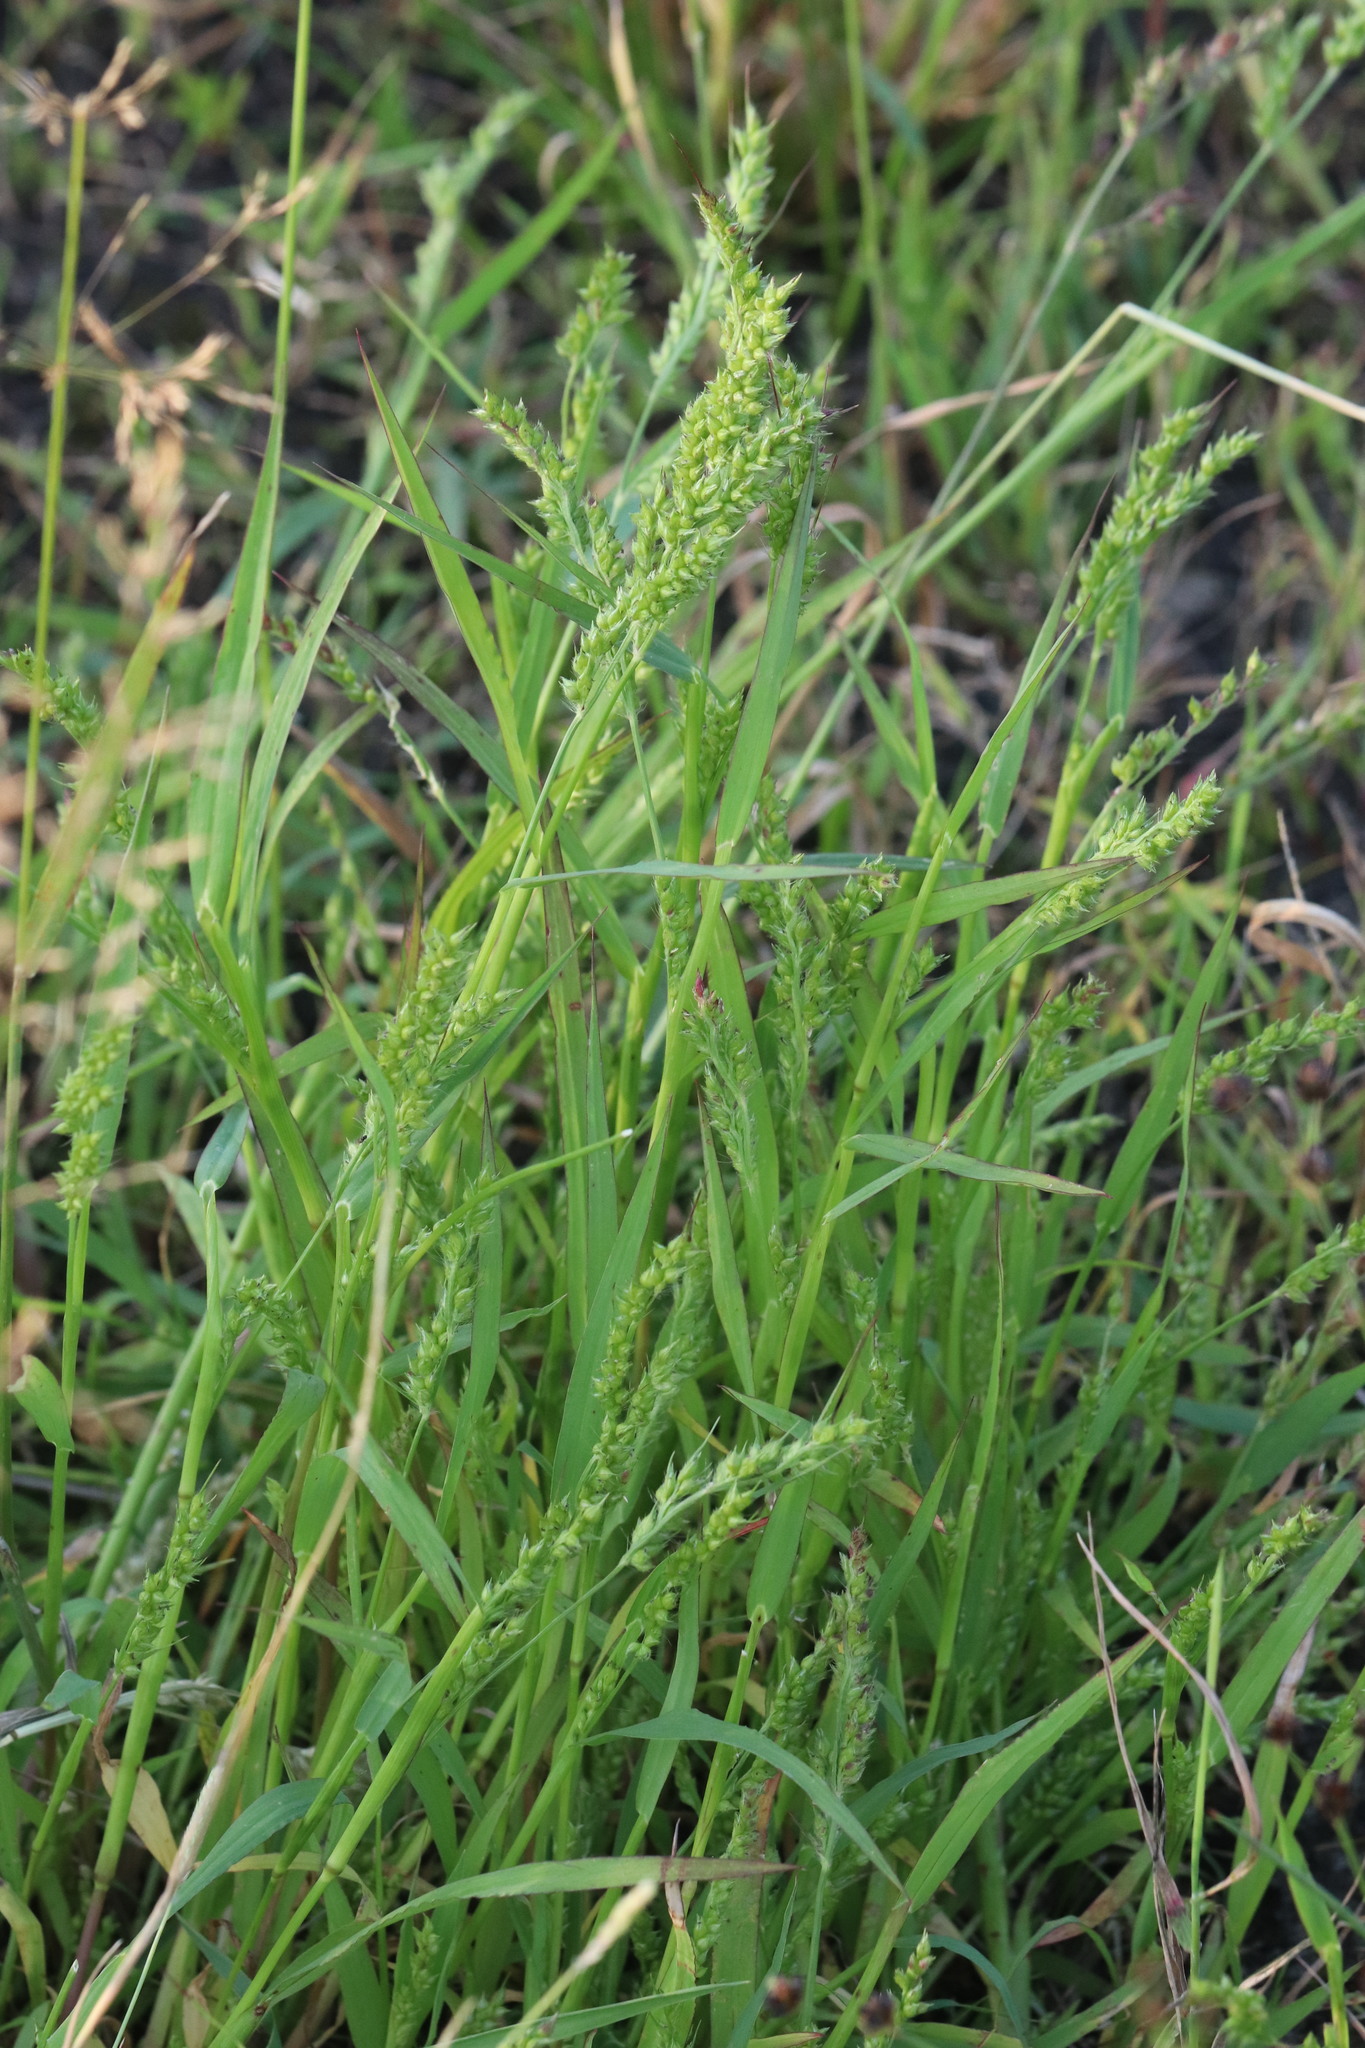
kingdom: Plantae
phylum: Tracheophyta
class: Liliopsida
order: Poales
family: Poaceae
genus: Echinochloa
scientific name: Echinochloa crus-galli
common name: Cockspur
